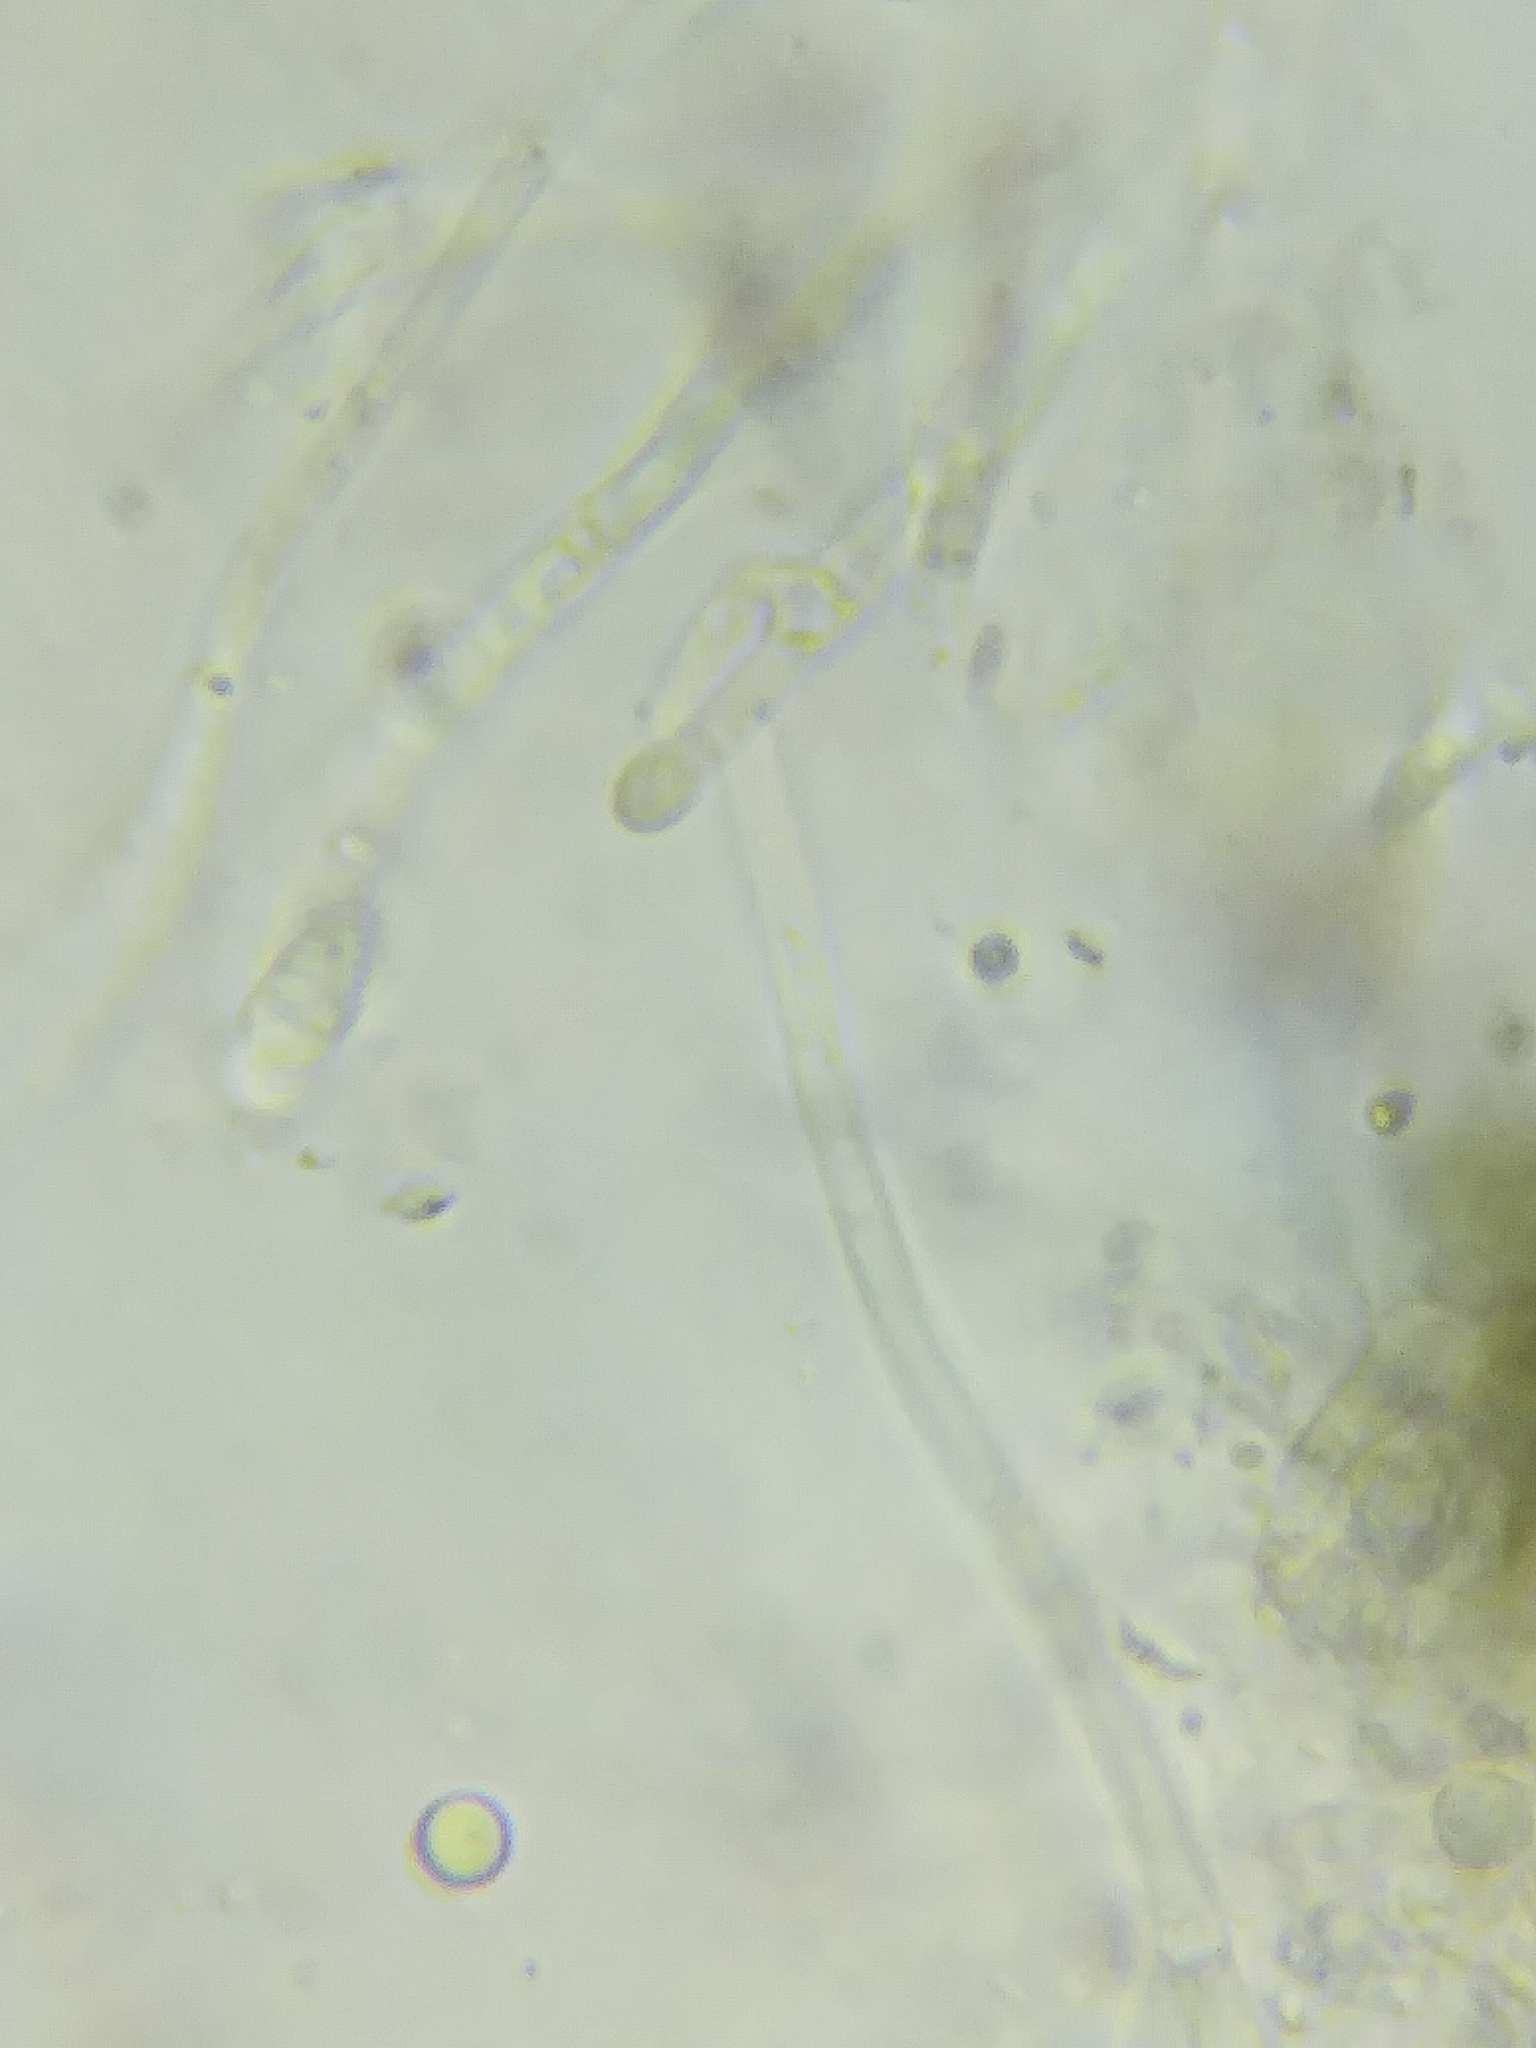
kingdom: Fungi
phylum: Ascomycota
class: Dothideomycetes
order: Patellariales
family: Patellariaceae
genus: Patellaria
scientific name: Patellaria atrata
